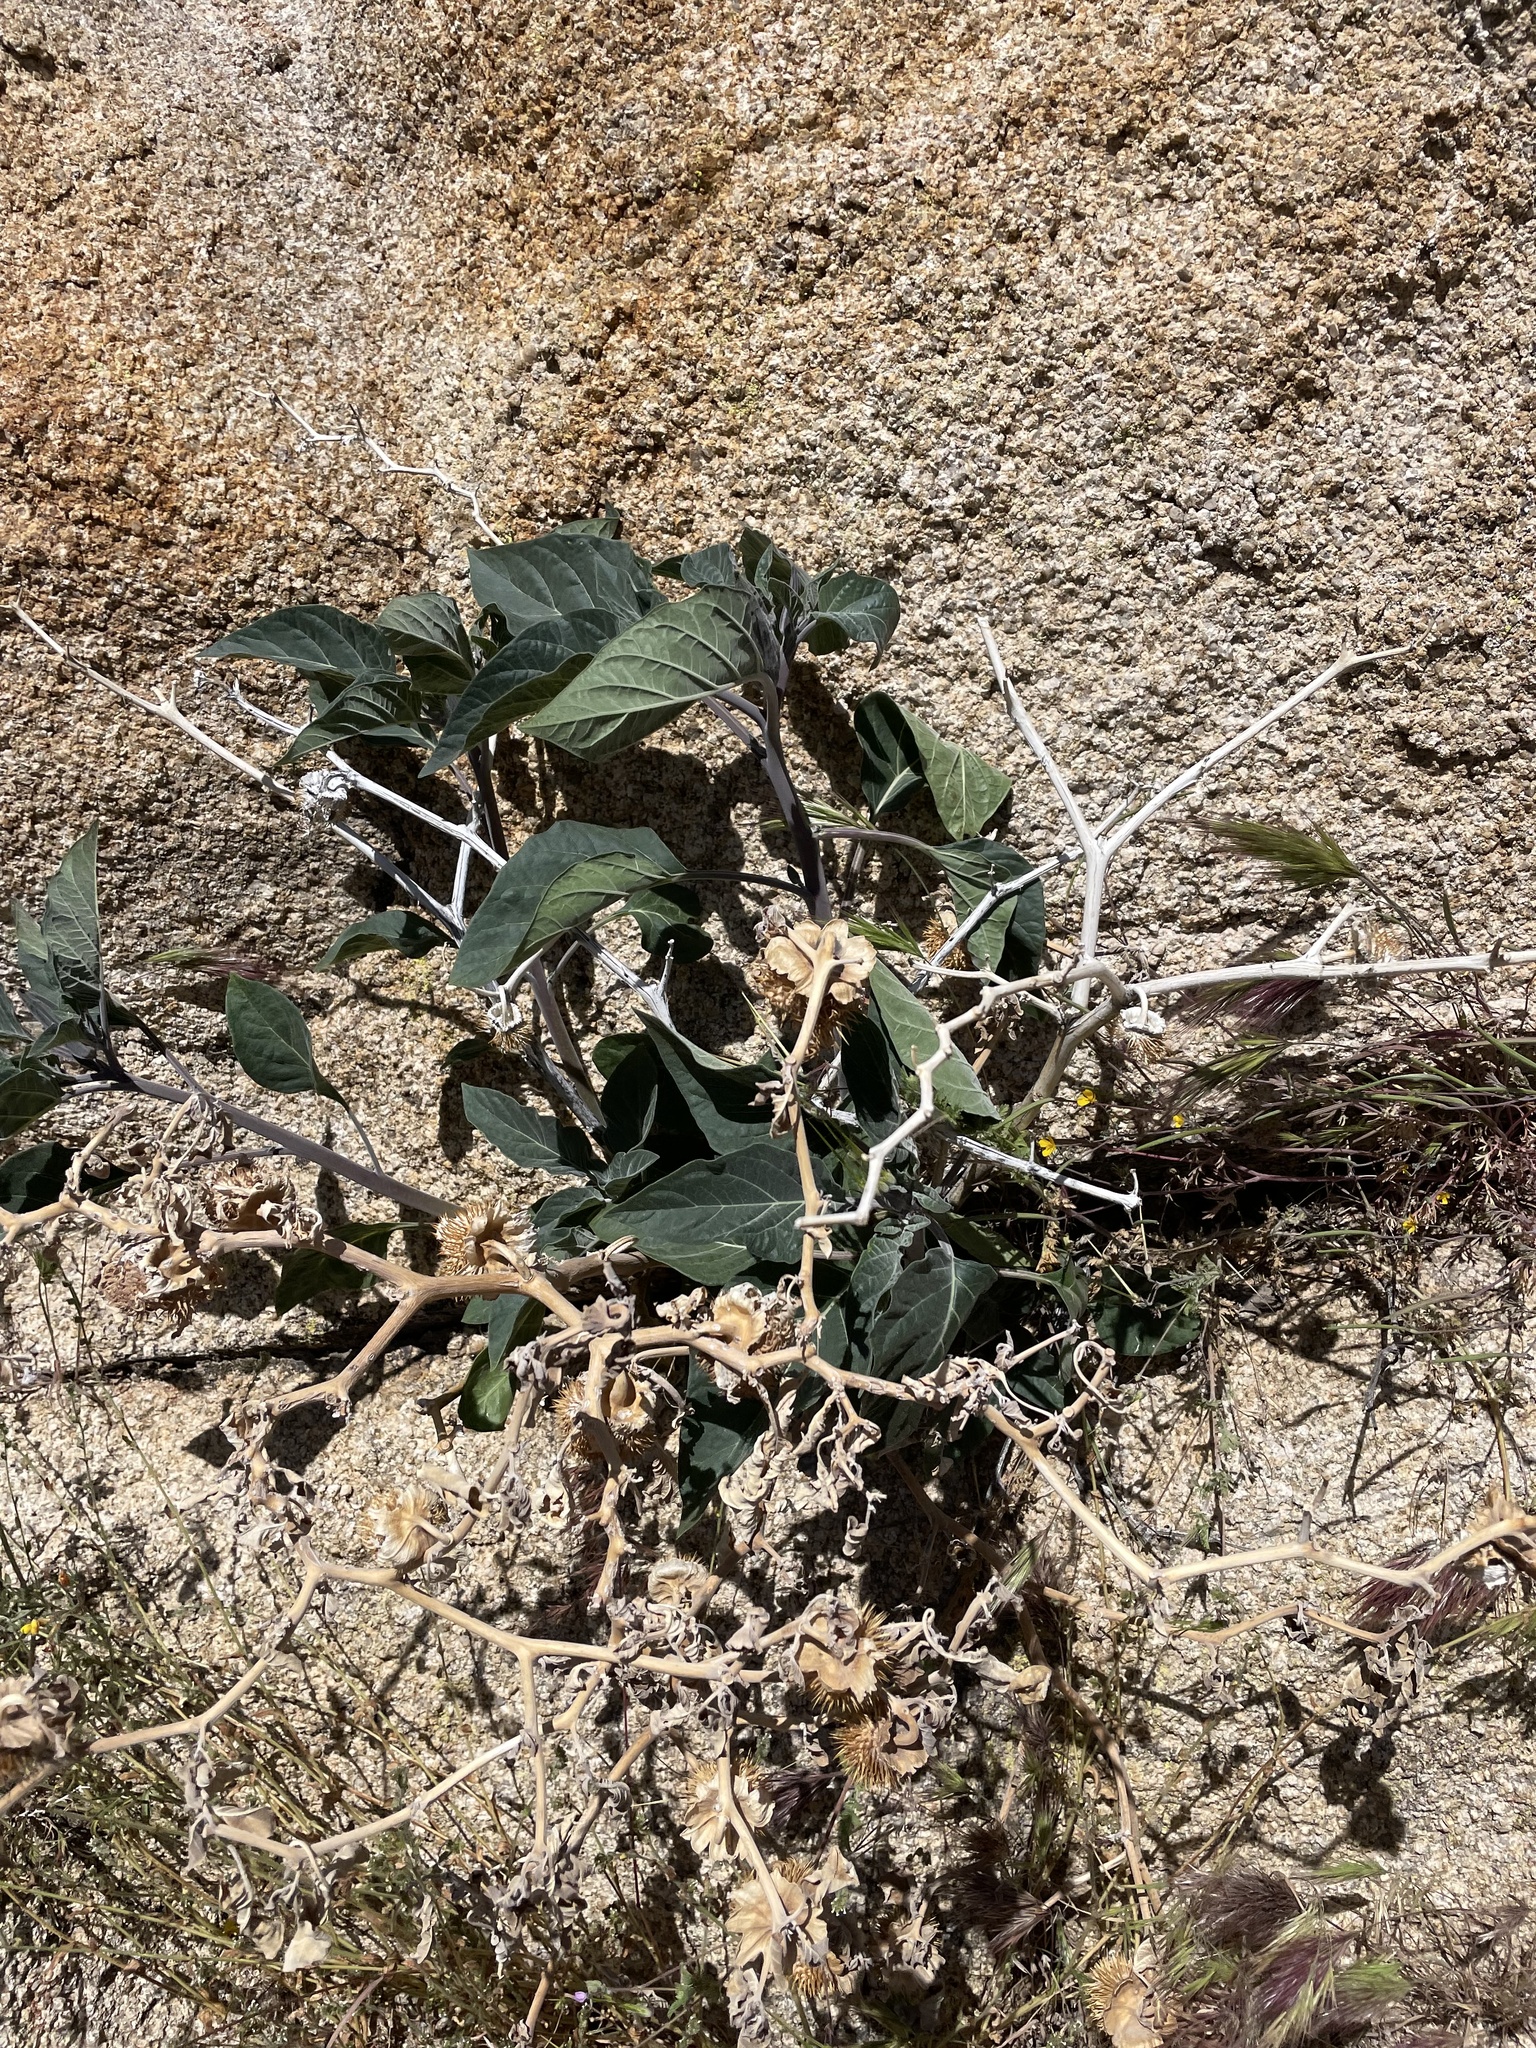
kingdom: Plantae
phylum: Tracheophyta
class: Magnoliopsida
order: Solanales
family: Solanaceae
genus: Datura
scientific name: Datura wrightii
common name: Sacred thorn-apple
